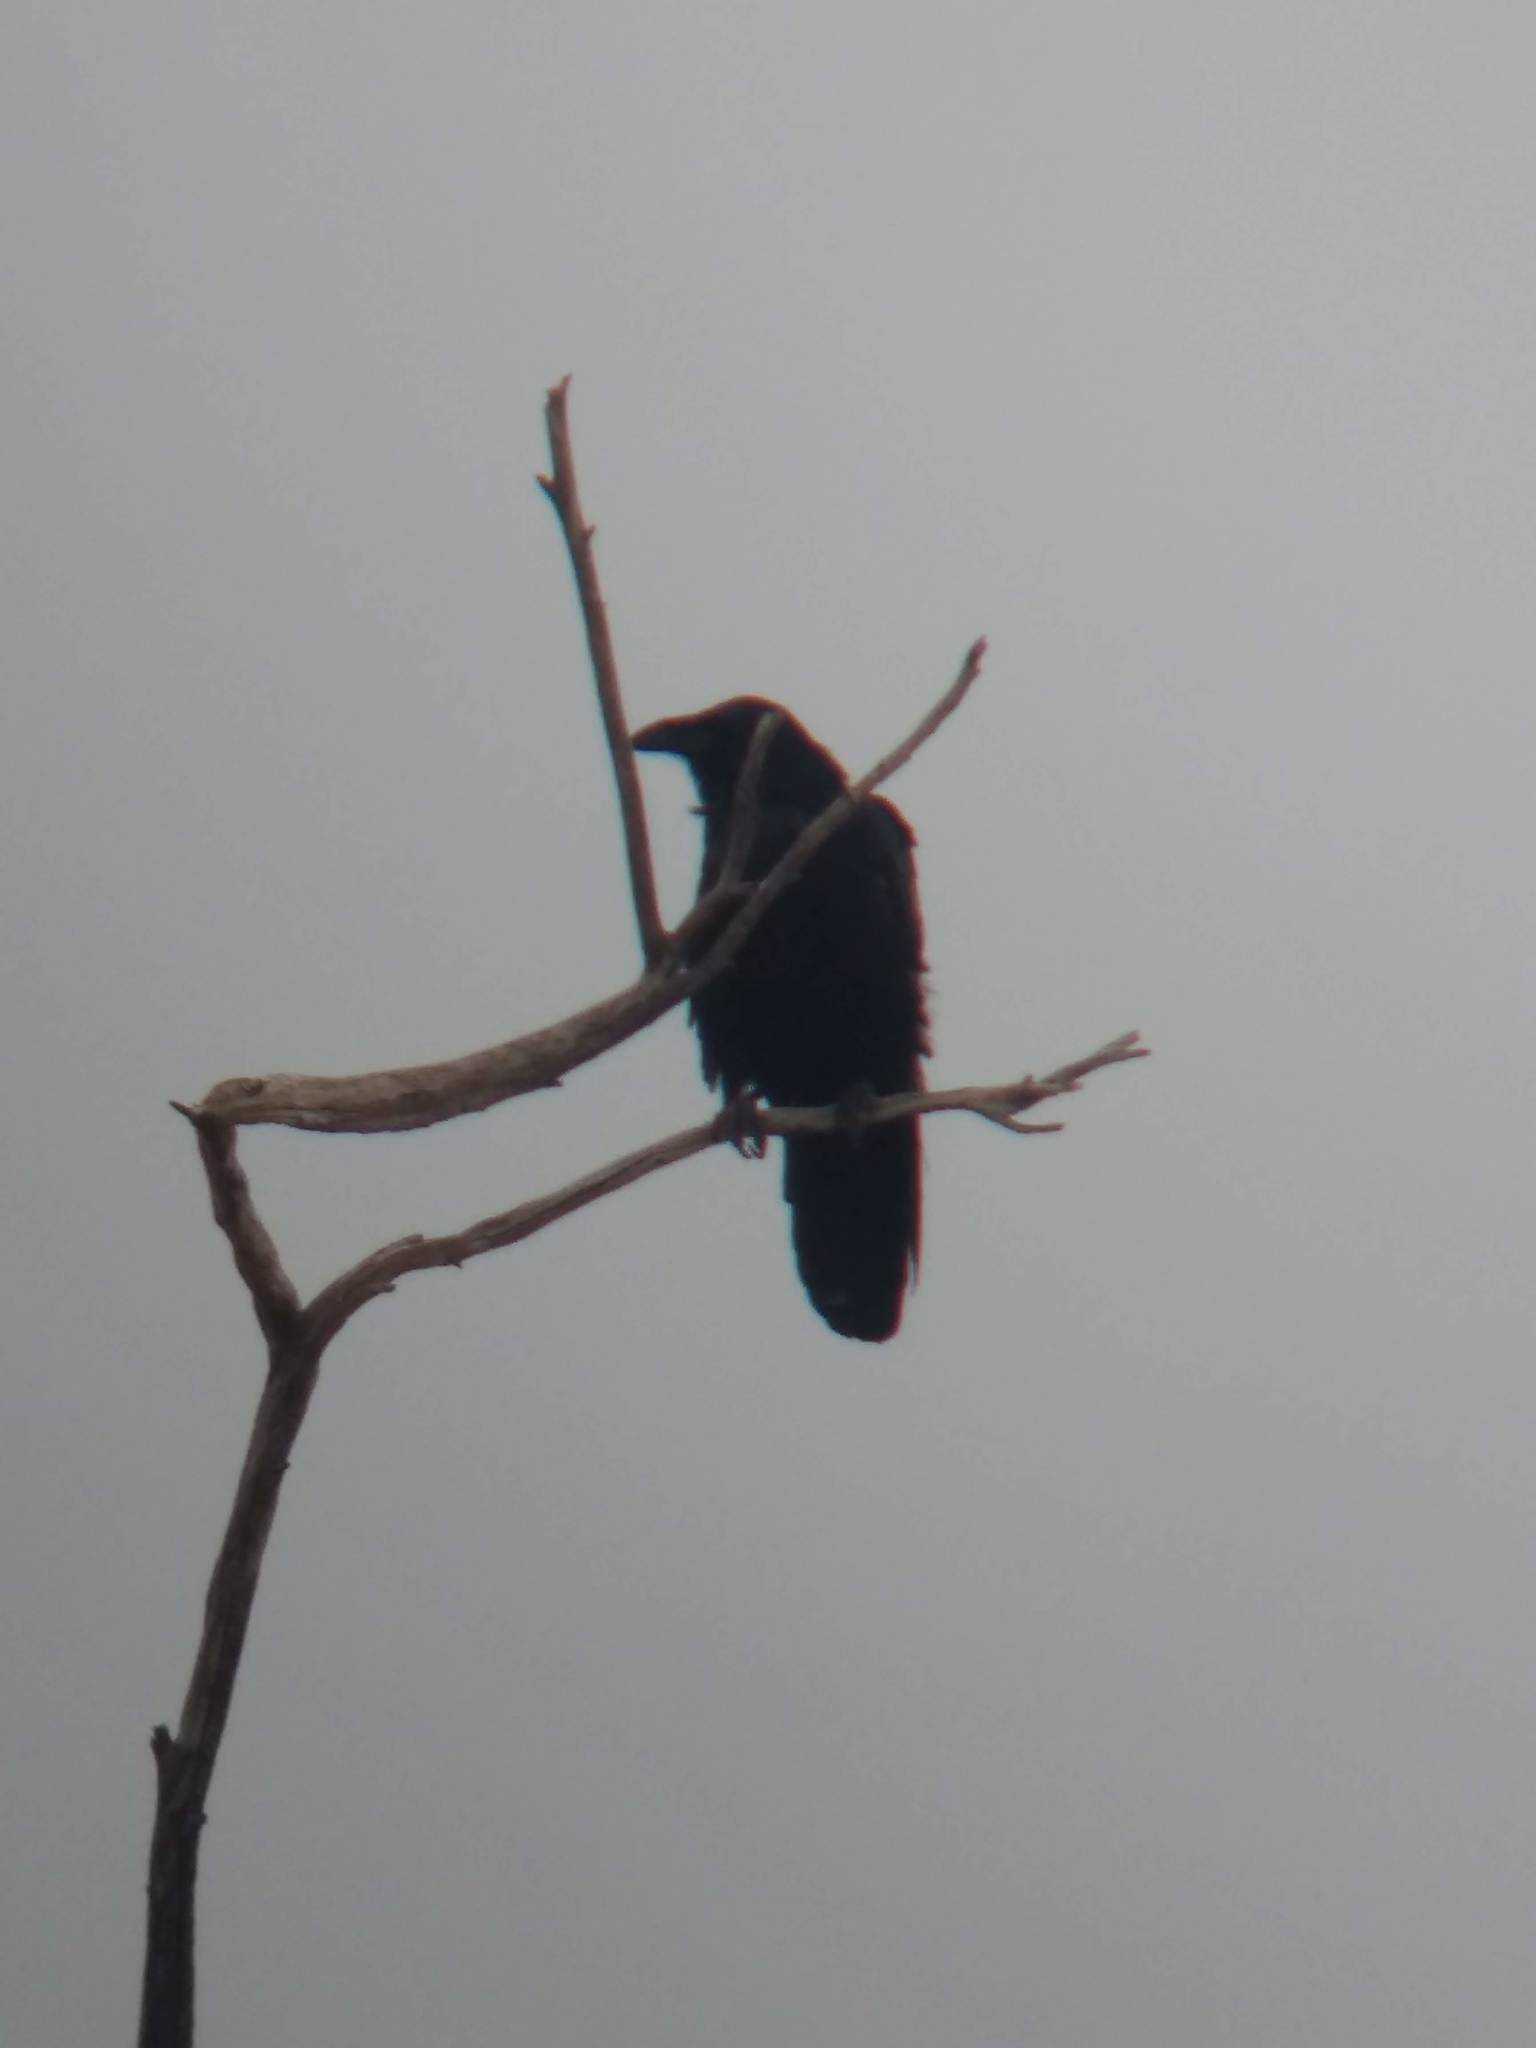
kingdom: Animalia
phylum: Chordata
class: Aves
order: Passeriformes
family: Corvidae
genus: Corvus
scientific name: Corvus corax
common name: Common raven
